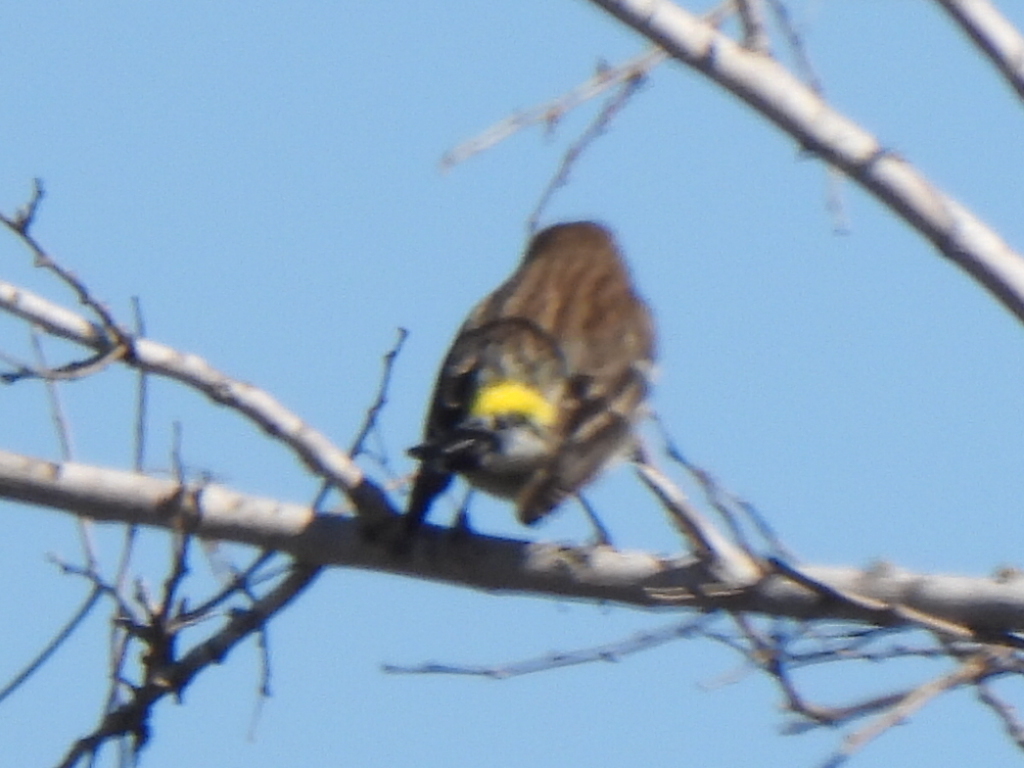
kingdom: Animalia
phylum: Chordata
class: Aves
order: Passeriformes
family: Parulidae
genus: Setophaga
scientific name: Setophaga coronata
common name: Myrtle warbler
